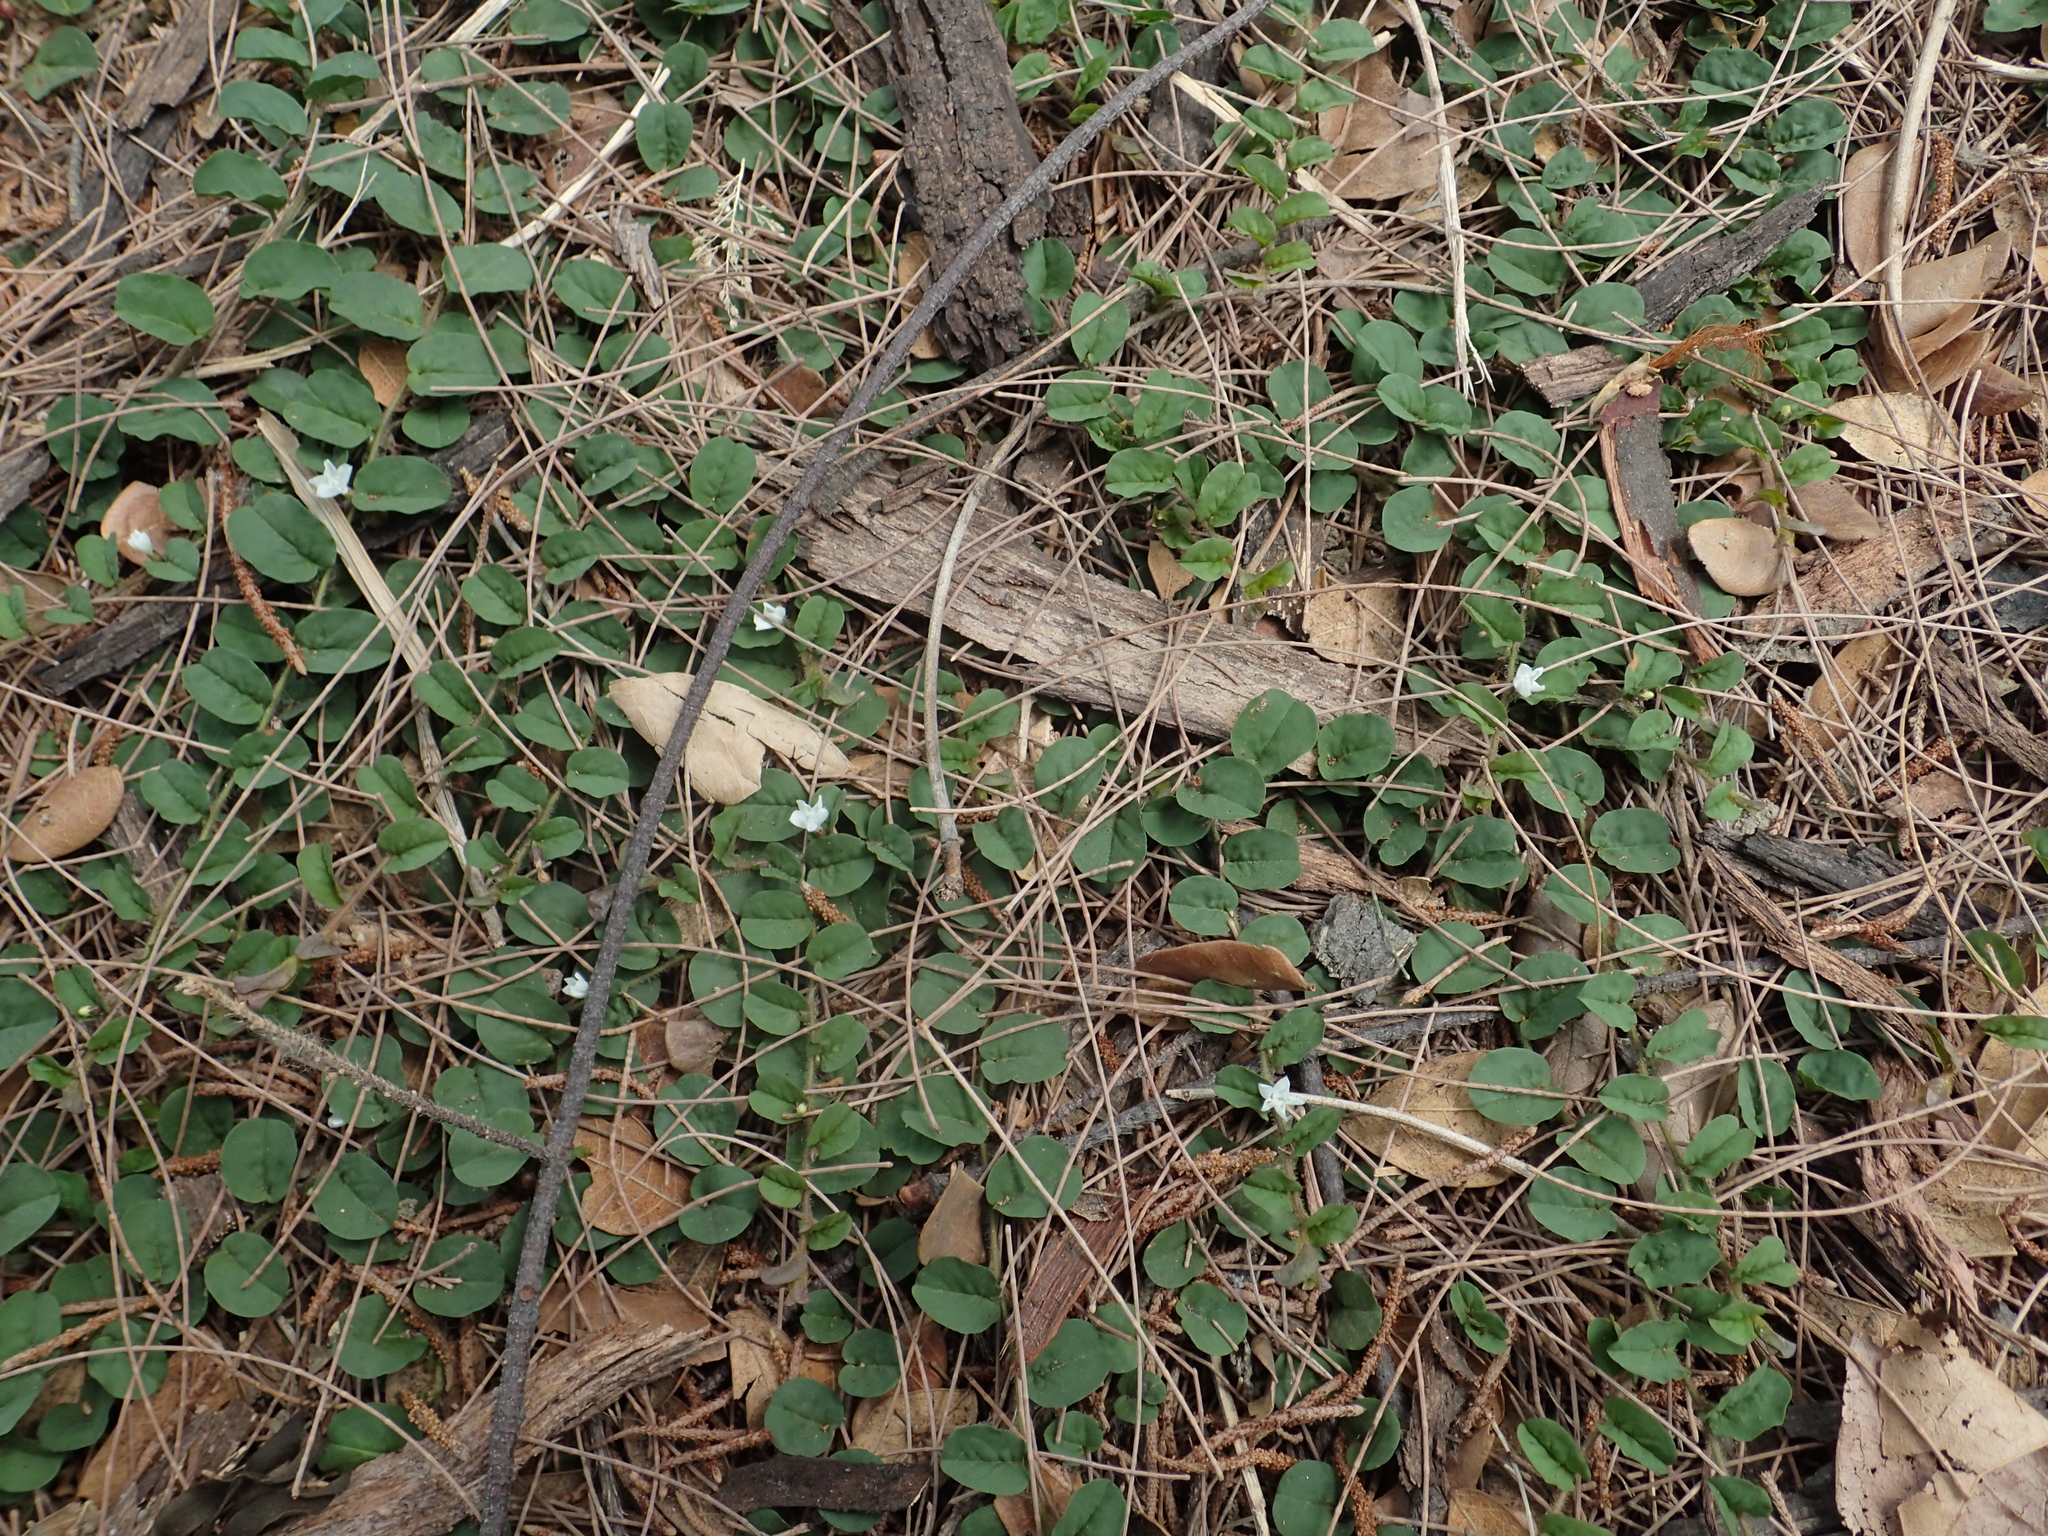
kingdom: Plantae
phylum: Tracheophyta
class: Magnoliopsida
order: Solanales
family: Convolvulaceae
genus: Evolvulus
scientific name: Evolvulus nummularius
